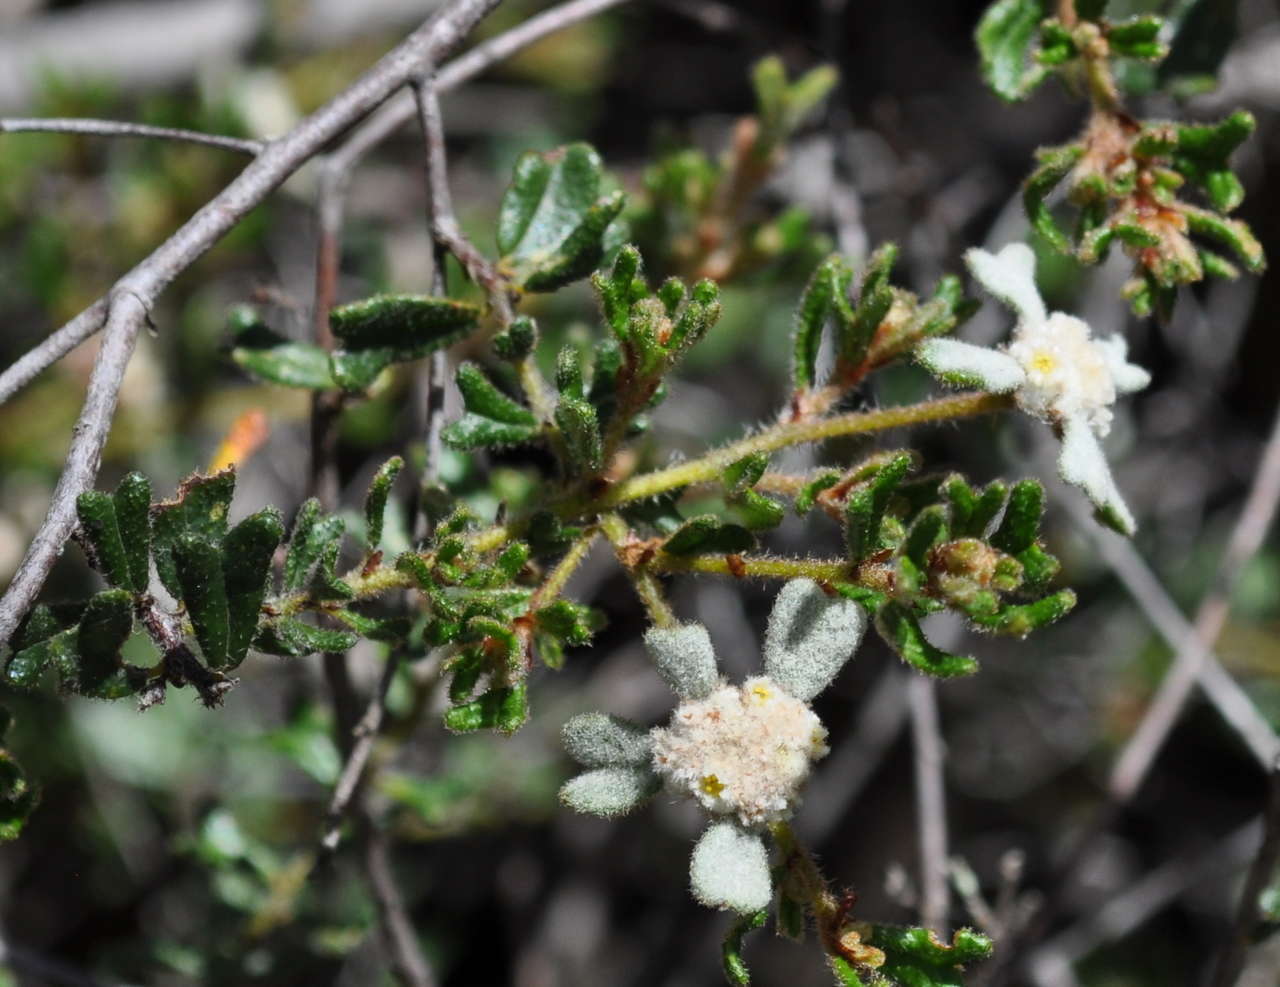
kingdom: Plantae
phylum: Tracheophyta
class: Magnoliopsida
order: Rosales
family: Rhamnaceae
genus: Spyridium
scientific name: Spyridium furculentum
